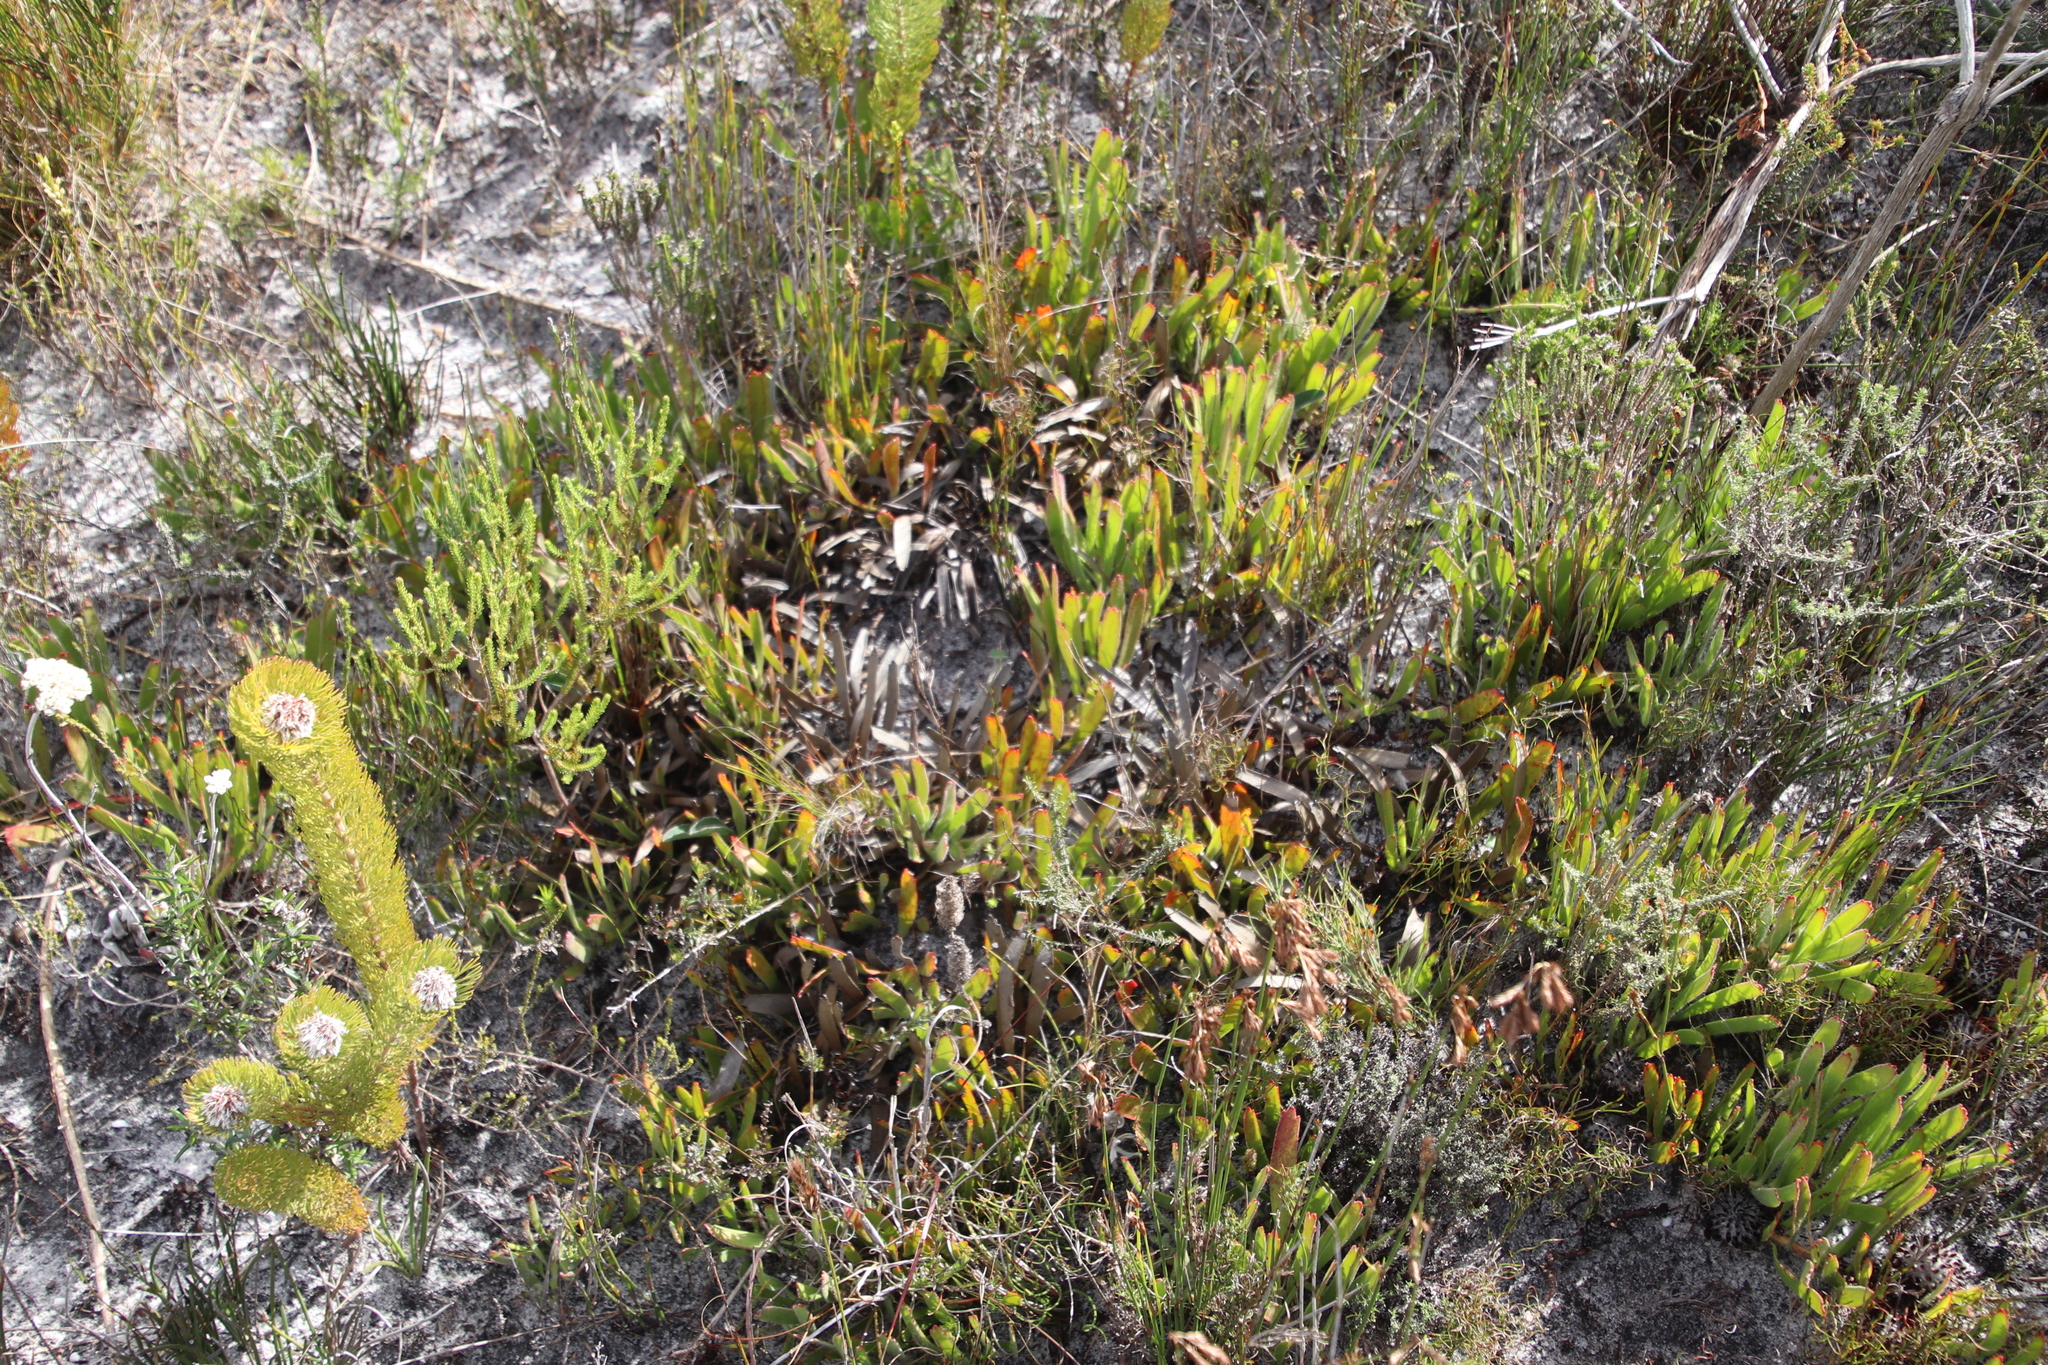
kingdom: Plantae
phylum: Tracheophyta
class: Magnoliopsida
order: Proteales
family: Proteaceae
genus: Leucospermum
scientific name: Leucospermum hypophyllocarpodendron
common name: Snakestem pincushion
